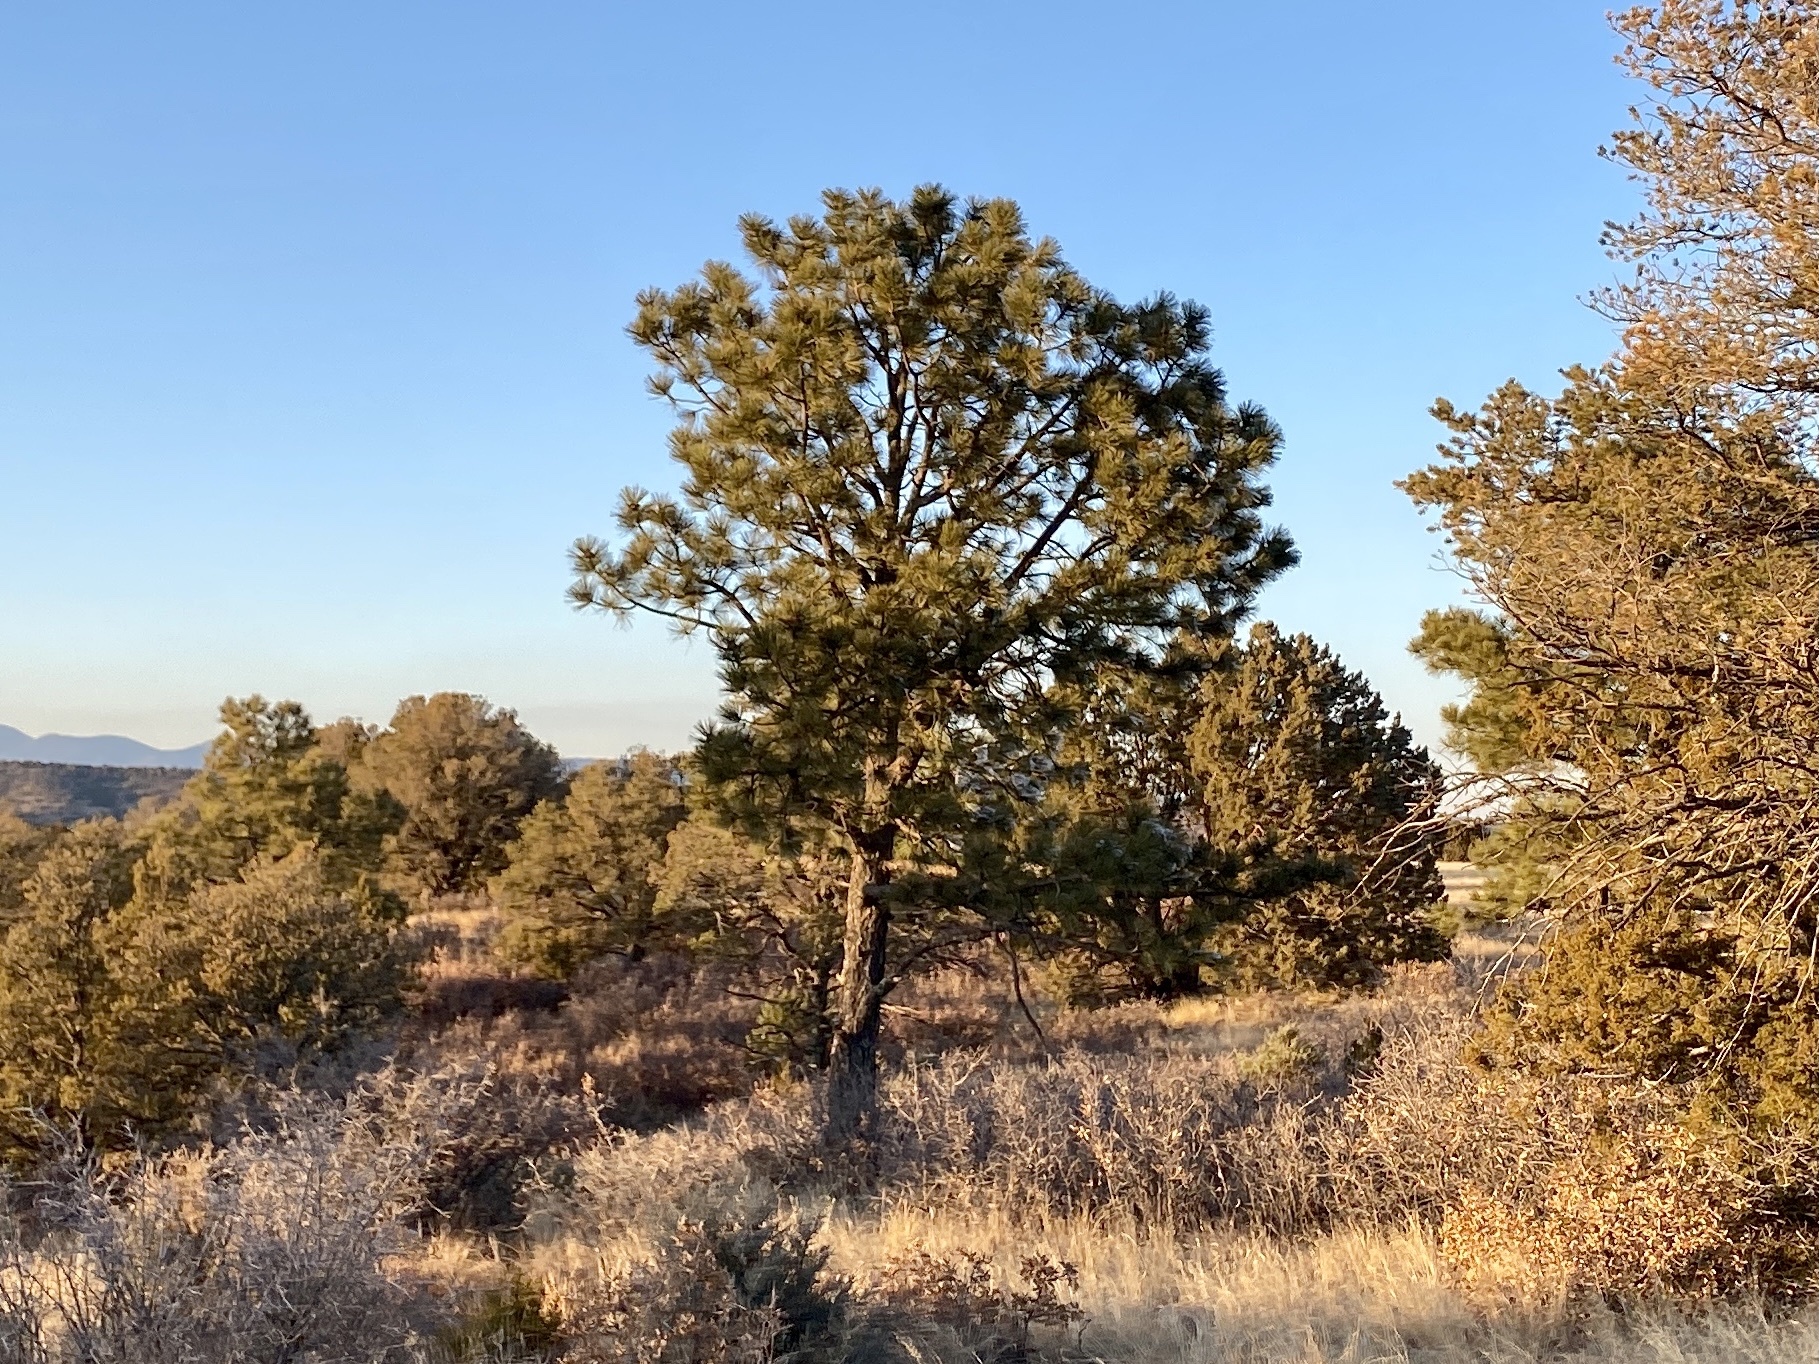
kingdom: Plantae
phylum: Tracheophyta
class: Pinopsida
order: Pinales
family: Pinaceae
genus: Pinus
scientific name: Pinus ponderosa
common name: Western yellow-pine
